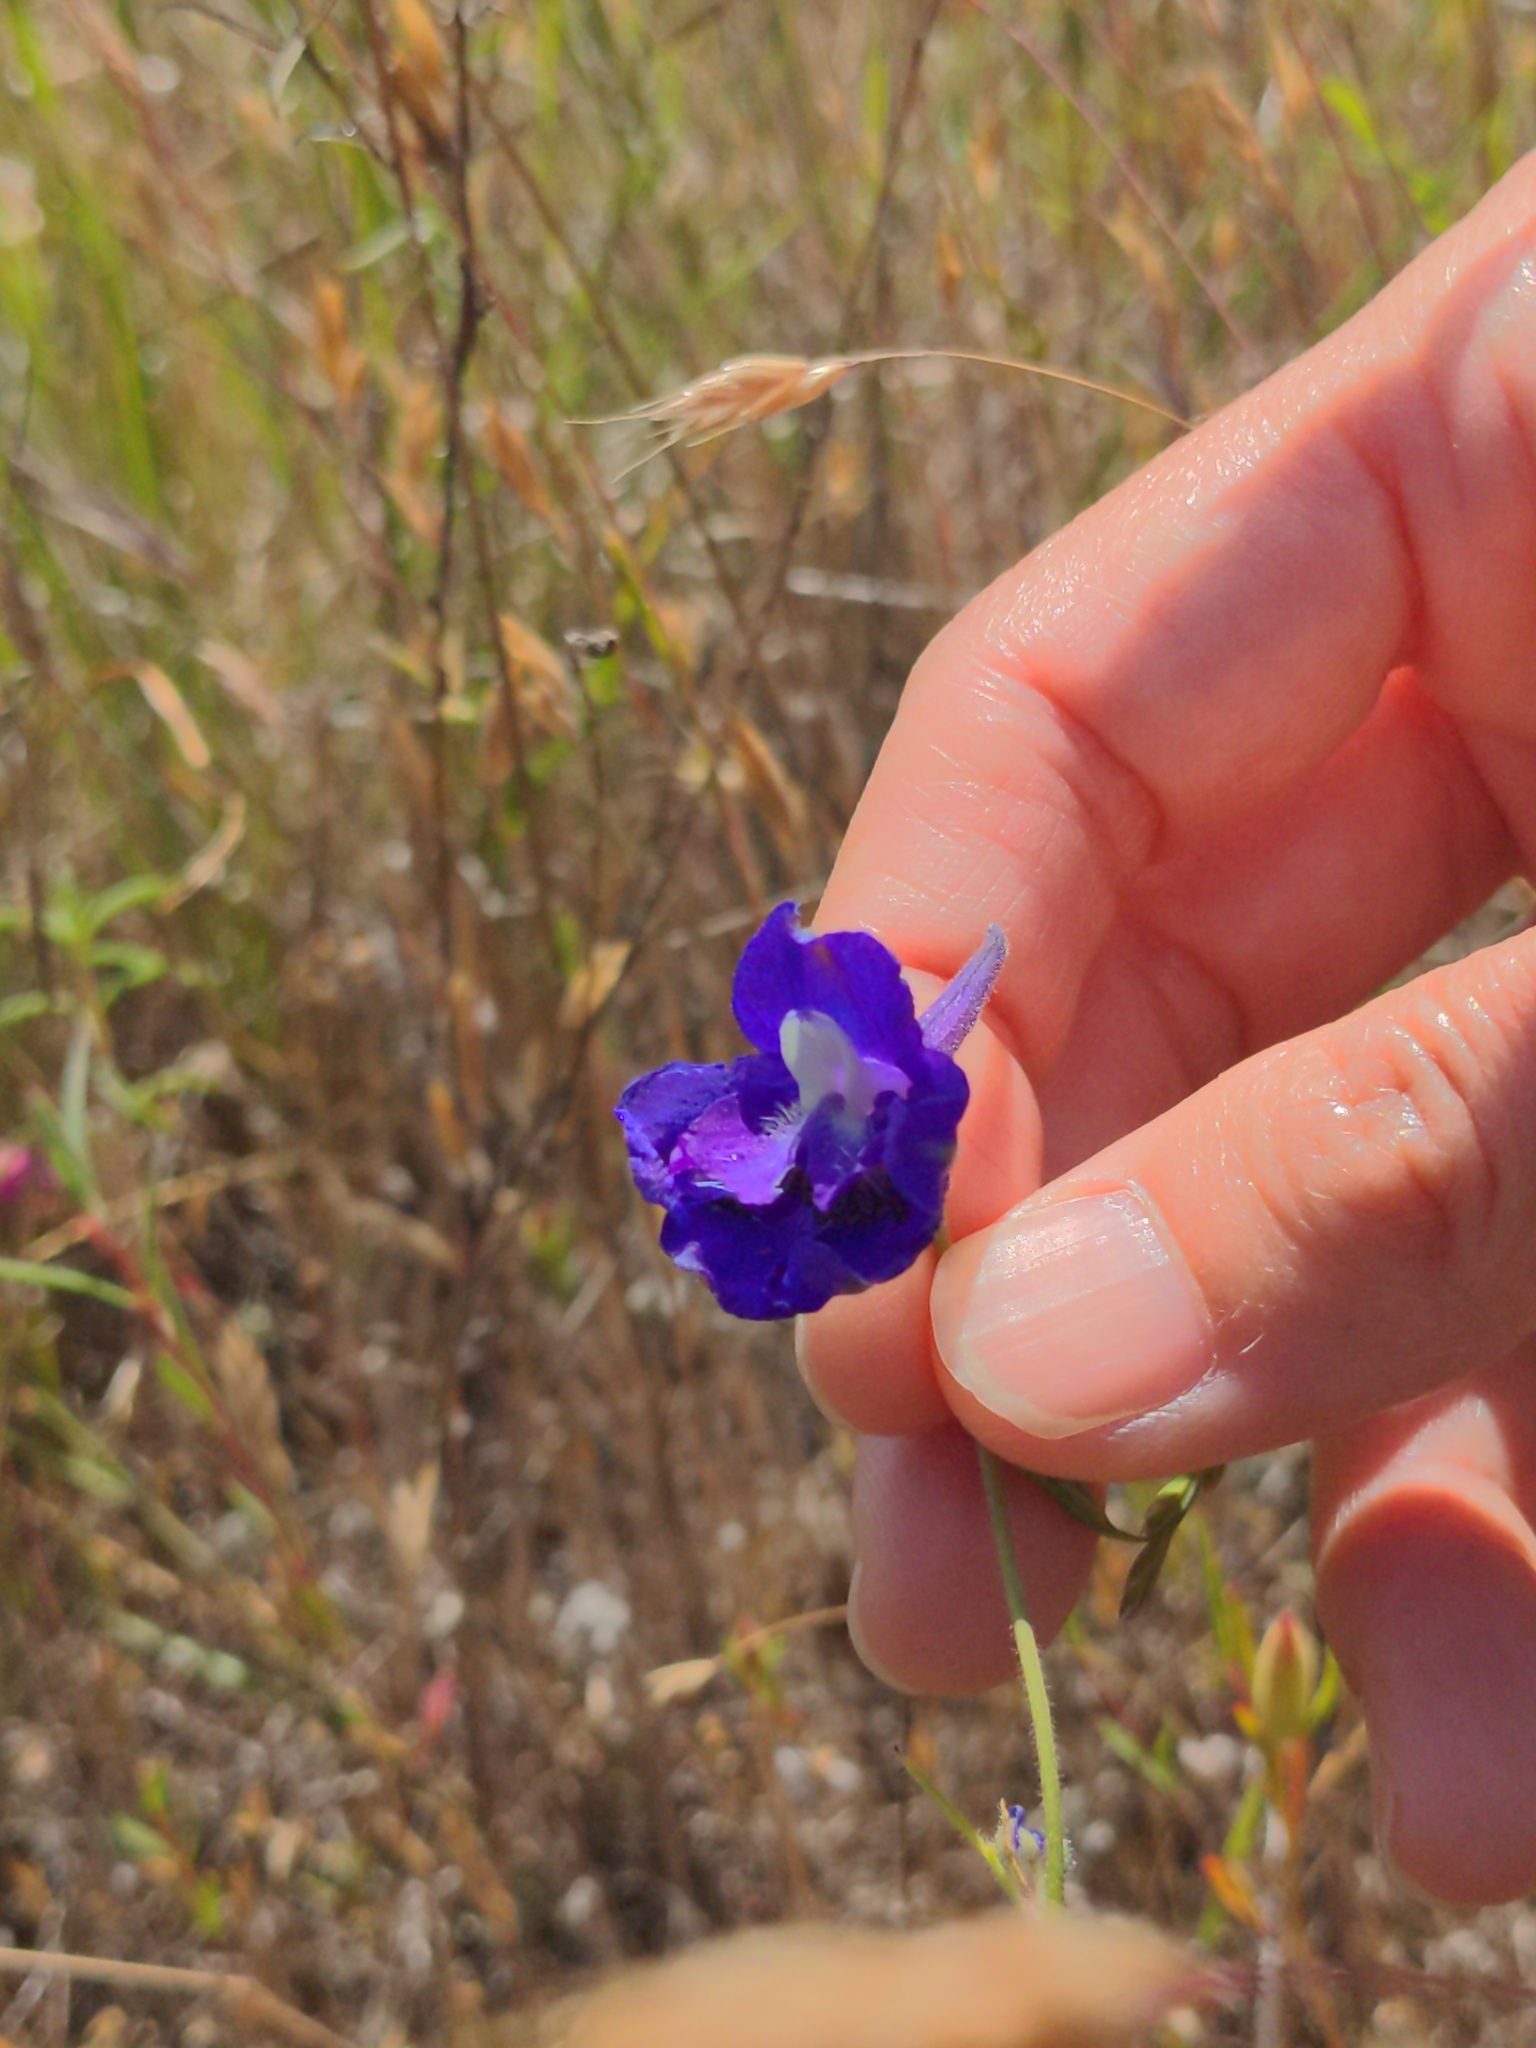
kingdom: Plantae
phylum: Tracheophyta
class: Magnoliopsida
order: Ranunculales
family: Ranunculaceae
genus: Delphinium
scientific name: Delphinium variegatum
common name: Royal larkspur
